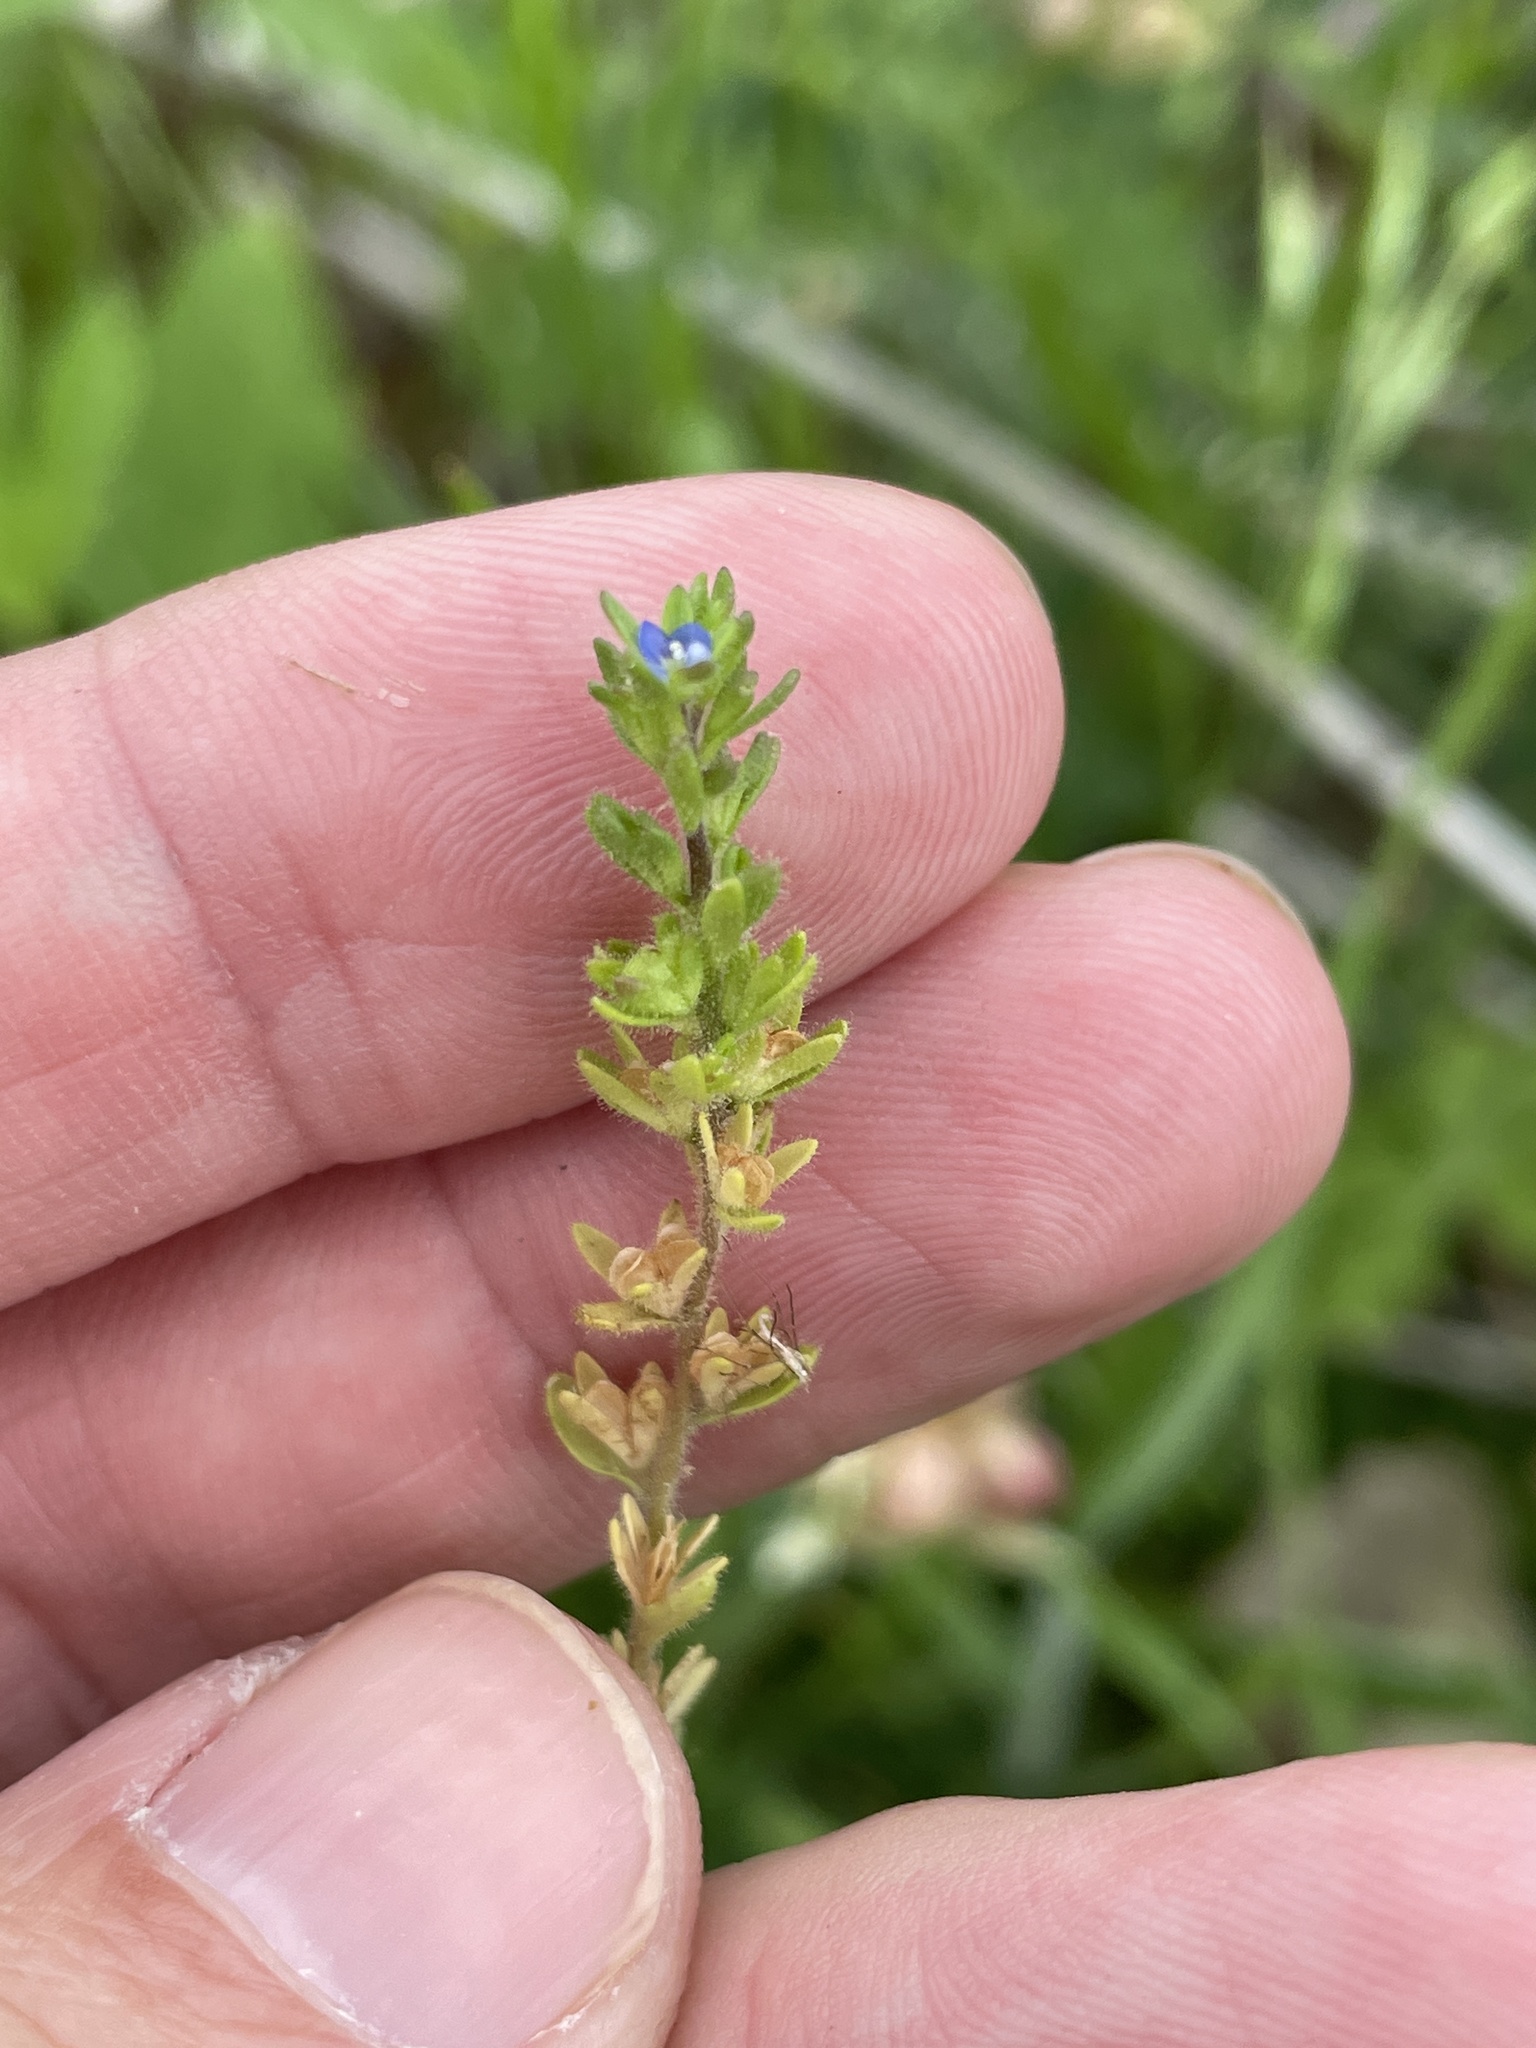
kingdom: Plantae
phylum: Tracheophyta
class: Magnoliopsida
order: Lamiales
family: Plantaginaceae
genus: Veronica
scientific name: Veronica arvensis
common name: Corn speedwell
